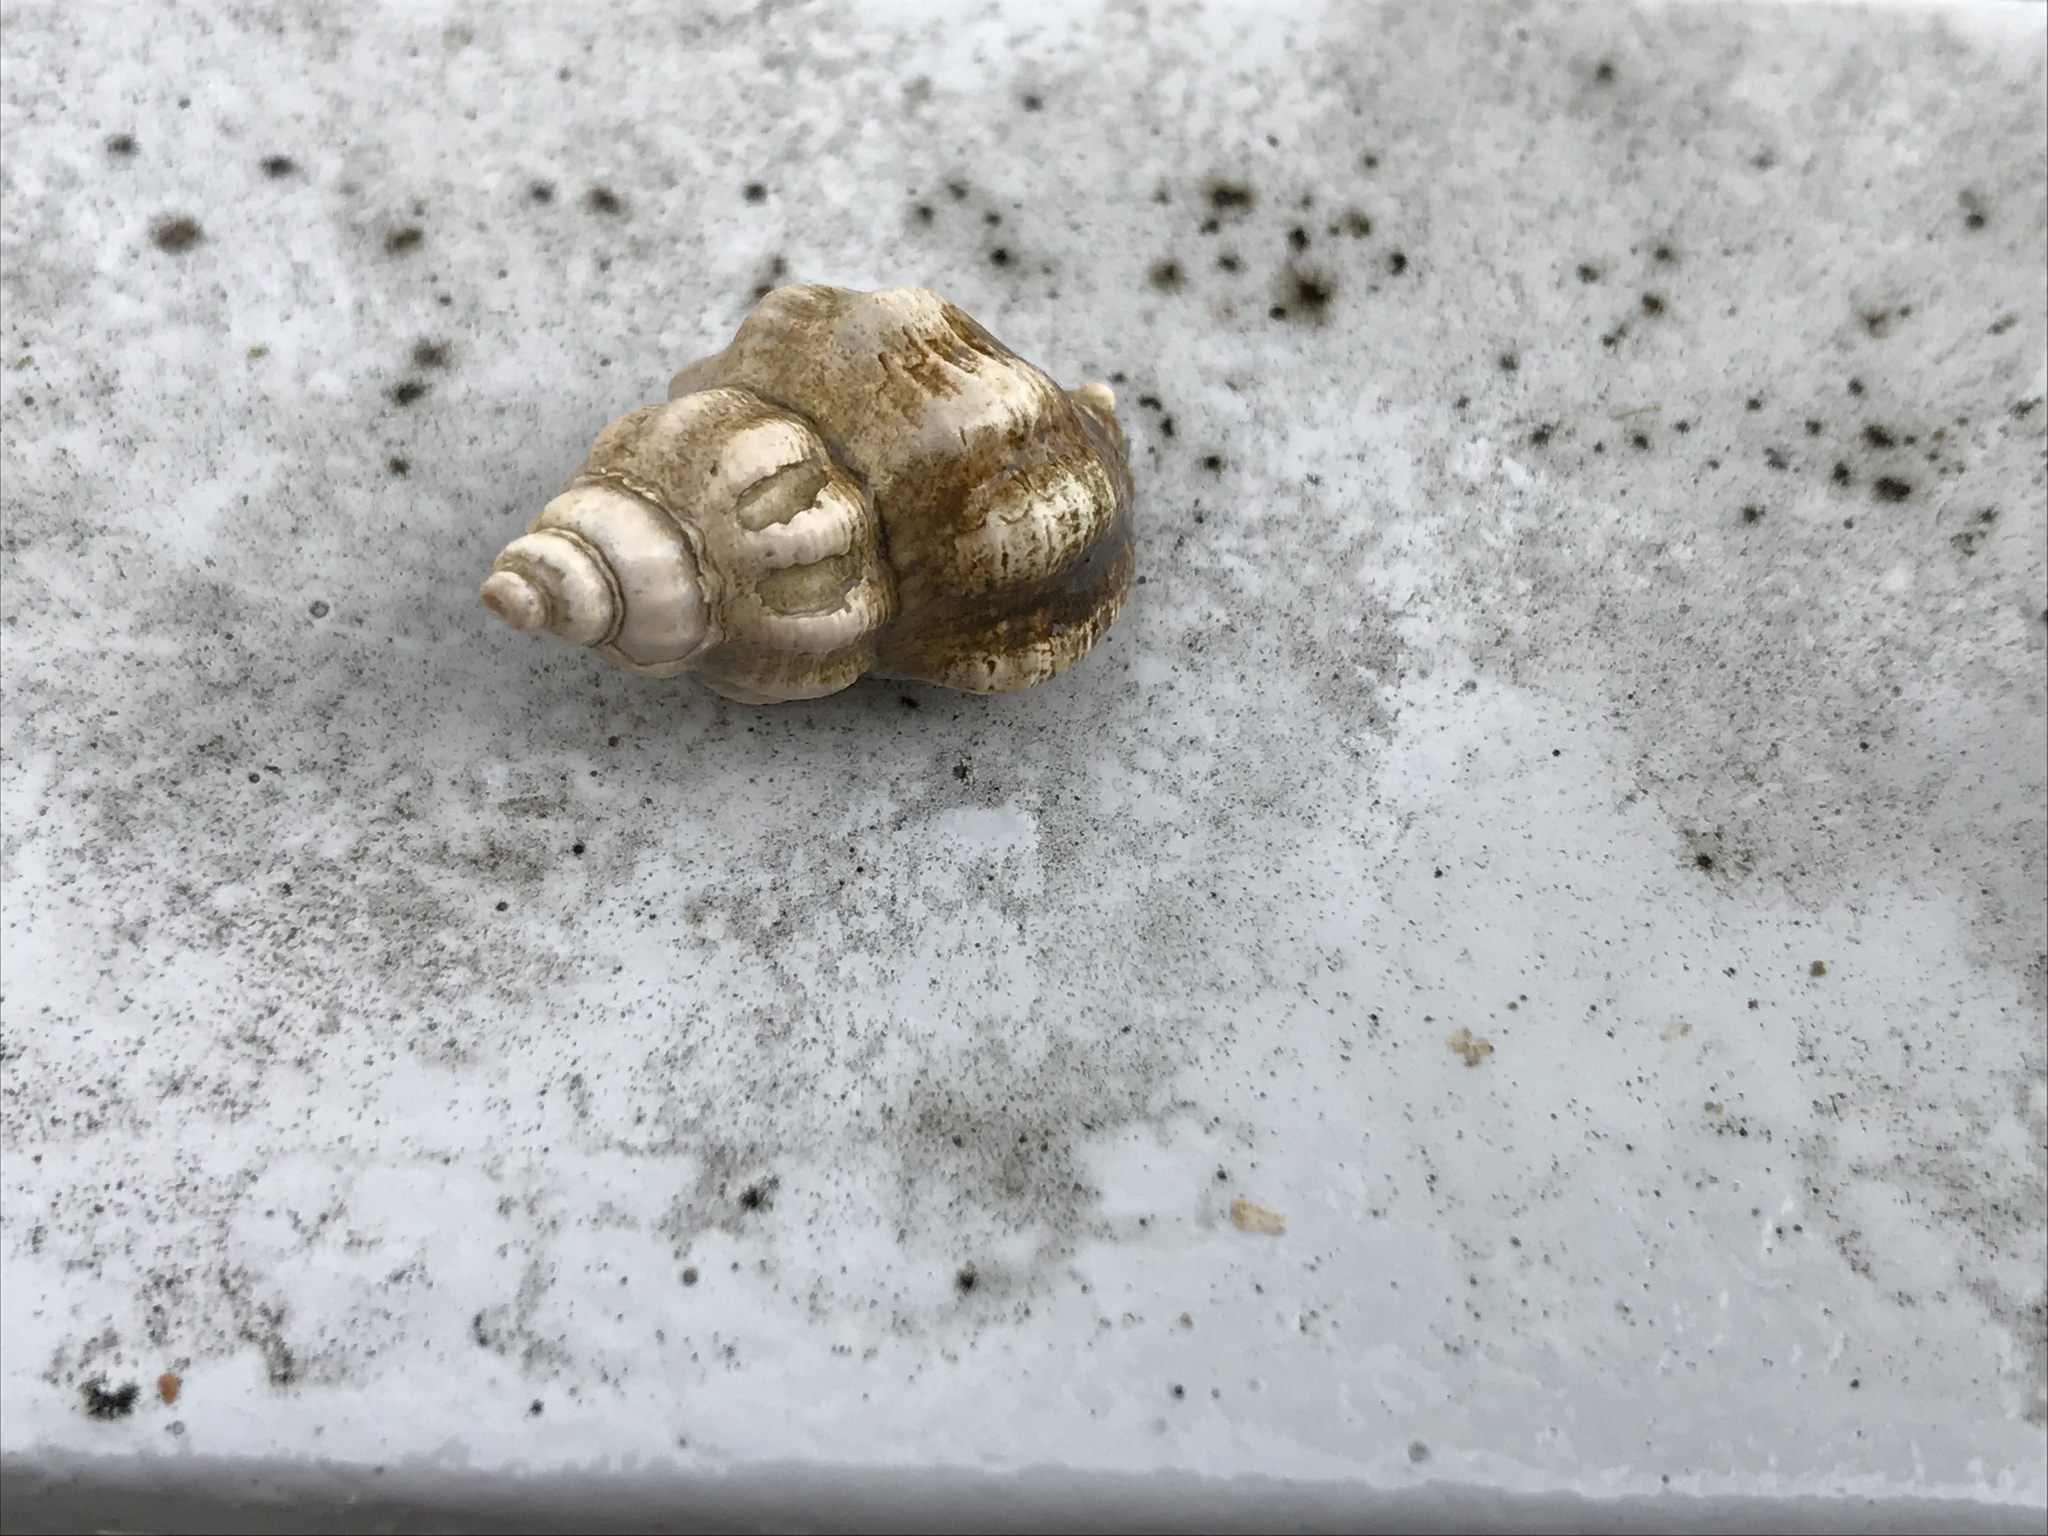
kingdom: Animalia
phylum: Mollusca
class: Gastropoda
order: Neogastropoda
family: Muricidae
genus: Urosalpinx
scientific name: Urosalpinx cinerea
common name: American sting winkle
